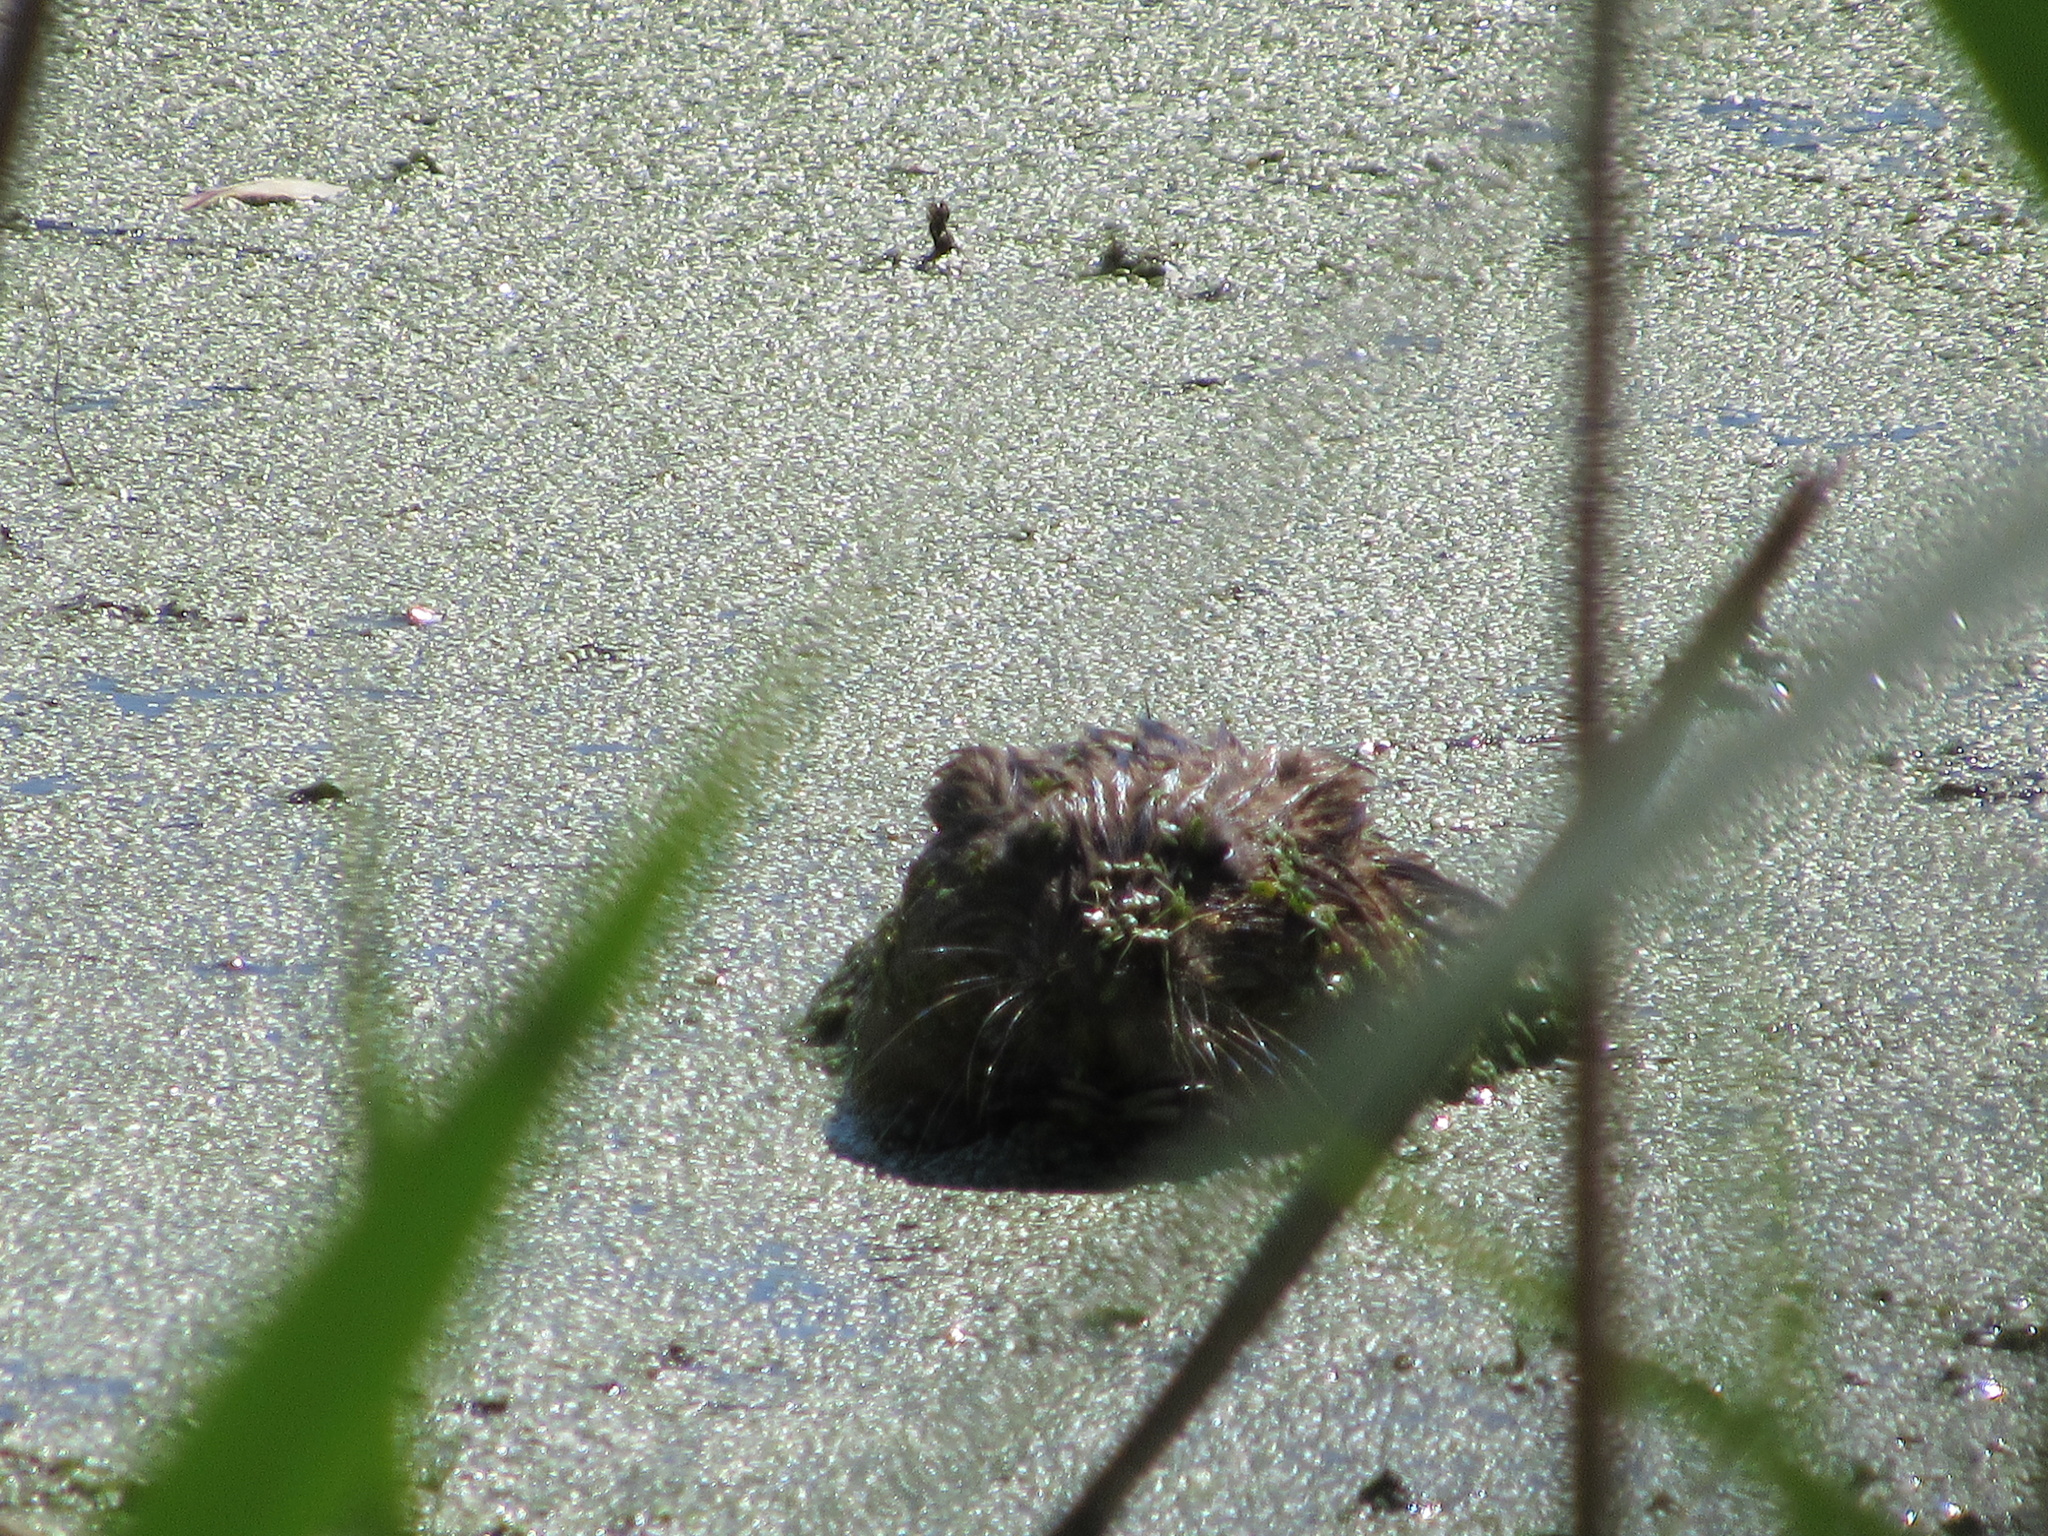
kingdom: Animalia
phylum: Chordata
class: Mammalia
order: Rodentia
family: Cricetidae
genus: Ondatra
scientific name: Ondatra zibethicus
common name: Muskrat
